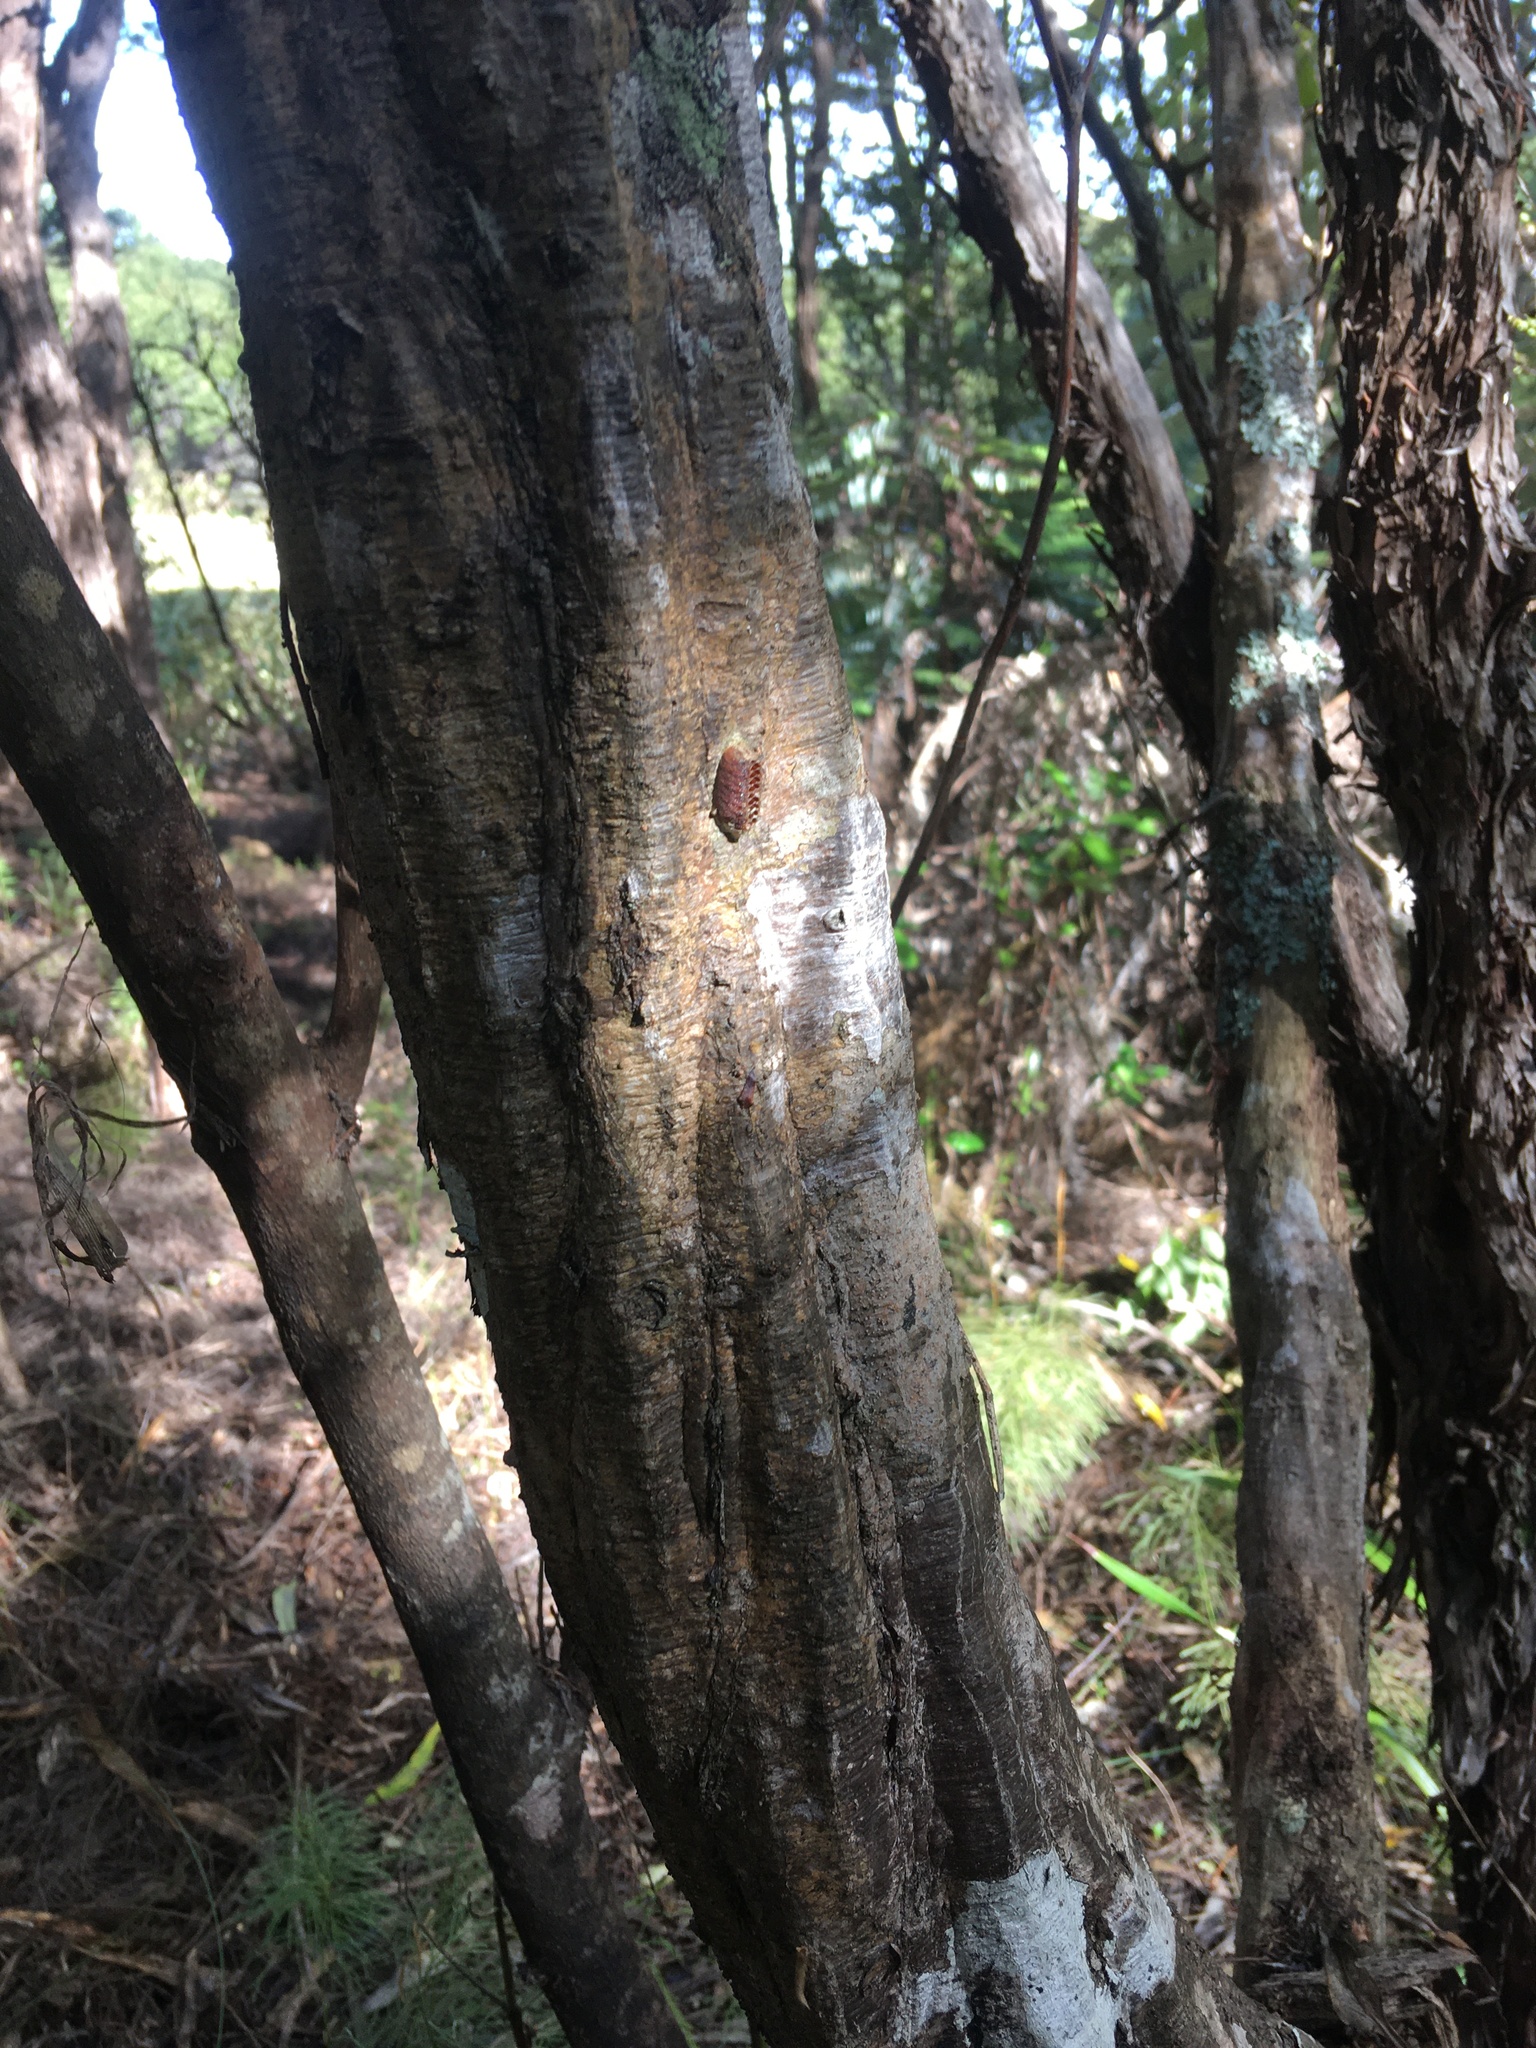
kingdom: Animalia
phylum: Arthropoda
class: Insecta
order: Mantodea
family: Mantidae
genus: Orthodera
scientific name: Orthodera novaezealandiae
